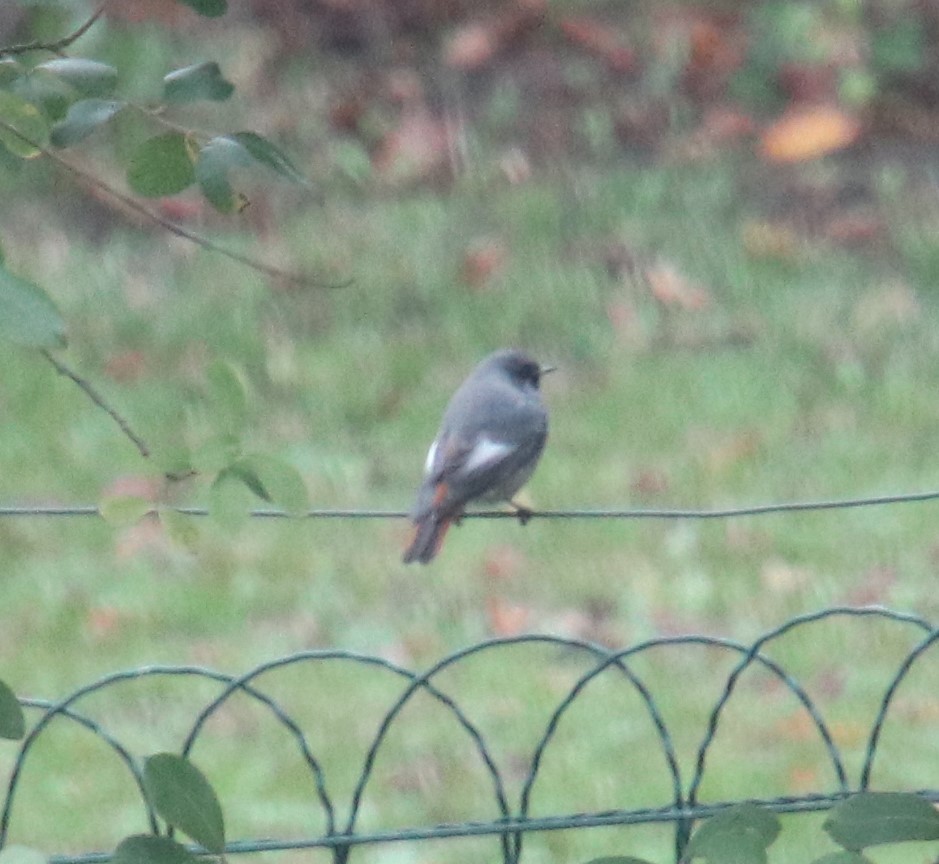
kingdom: Animalia
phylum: Chordata
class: Aves
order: Passeriformes
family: Muscicapidae
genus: Phoenicurus
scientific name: Phoenicurus ochruros
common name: Black redstart
